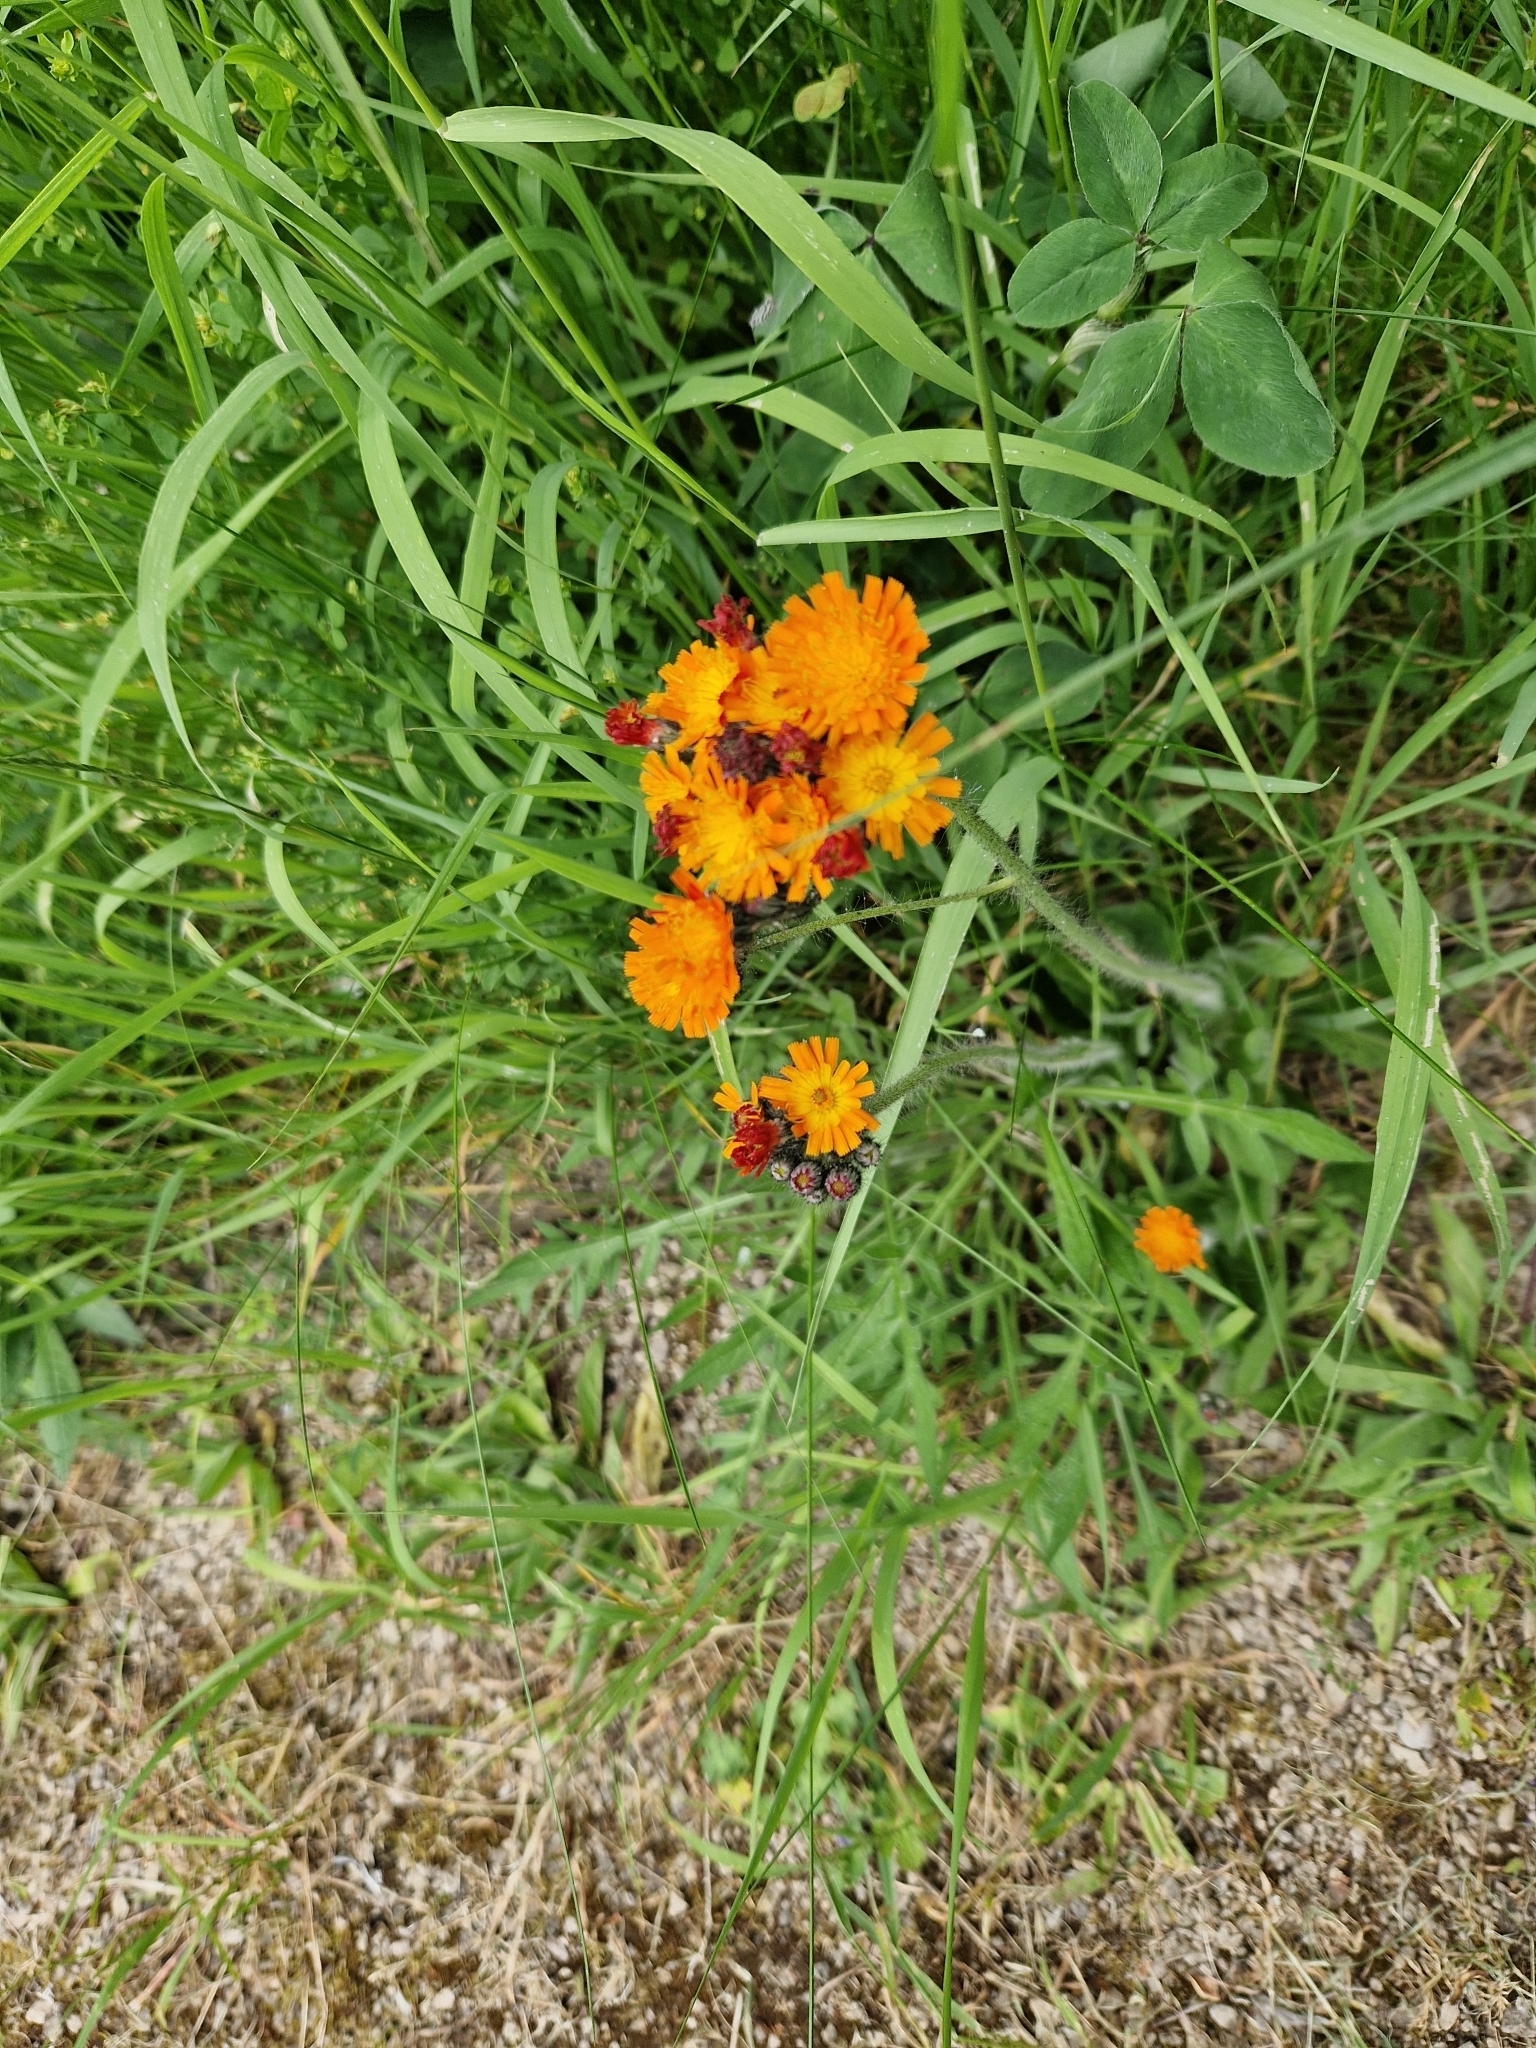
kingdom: Plantae
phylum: Tracheophyta
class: Magnoliopsida
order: Asterales
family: Asteraceae
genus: Pilosella
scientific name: Pilosella aurantiaca
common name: Fox-and-cubs
